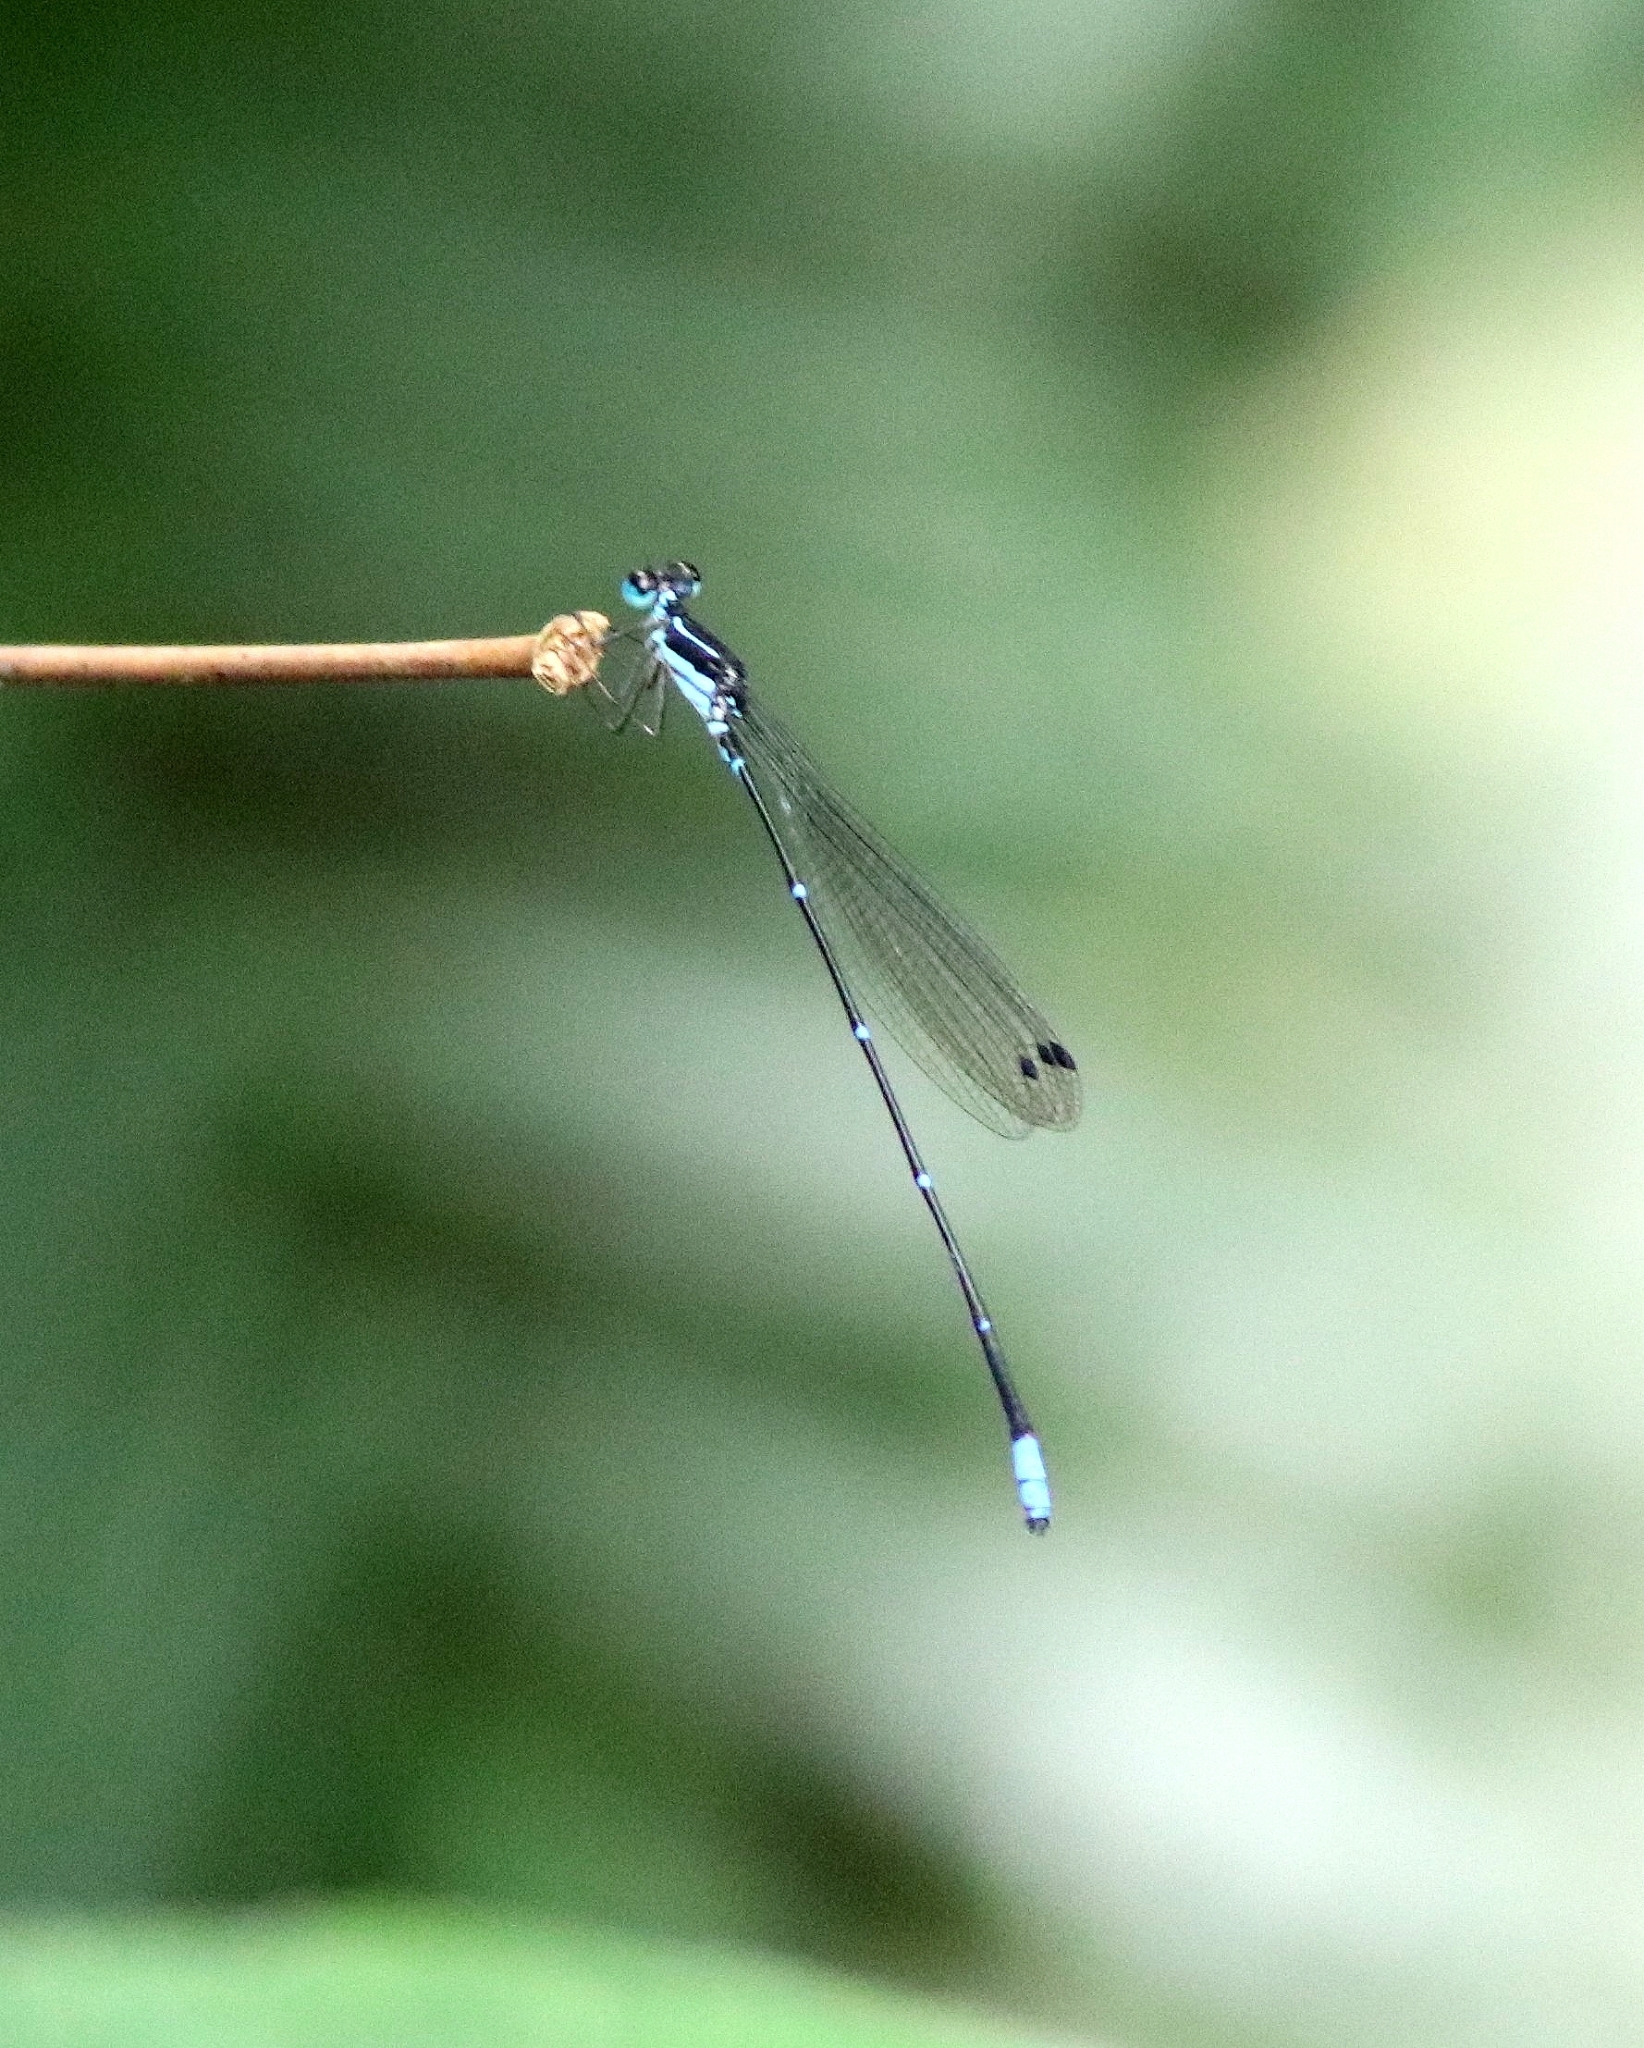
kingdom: Animalia
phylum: Arthropoda
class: Insecta
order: Odonata
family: Platycnemididae
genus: Caconeura
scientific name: Caconeura ramburi
